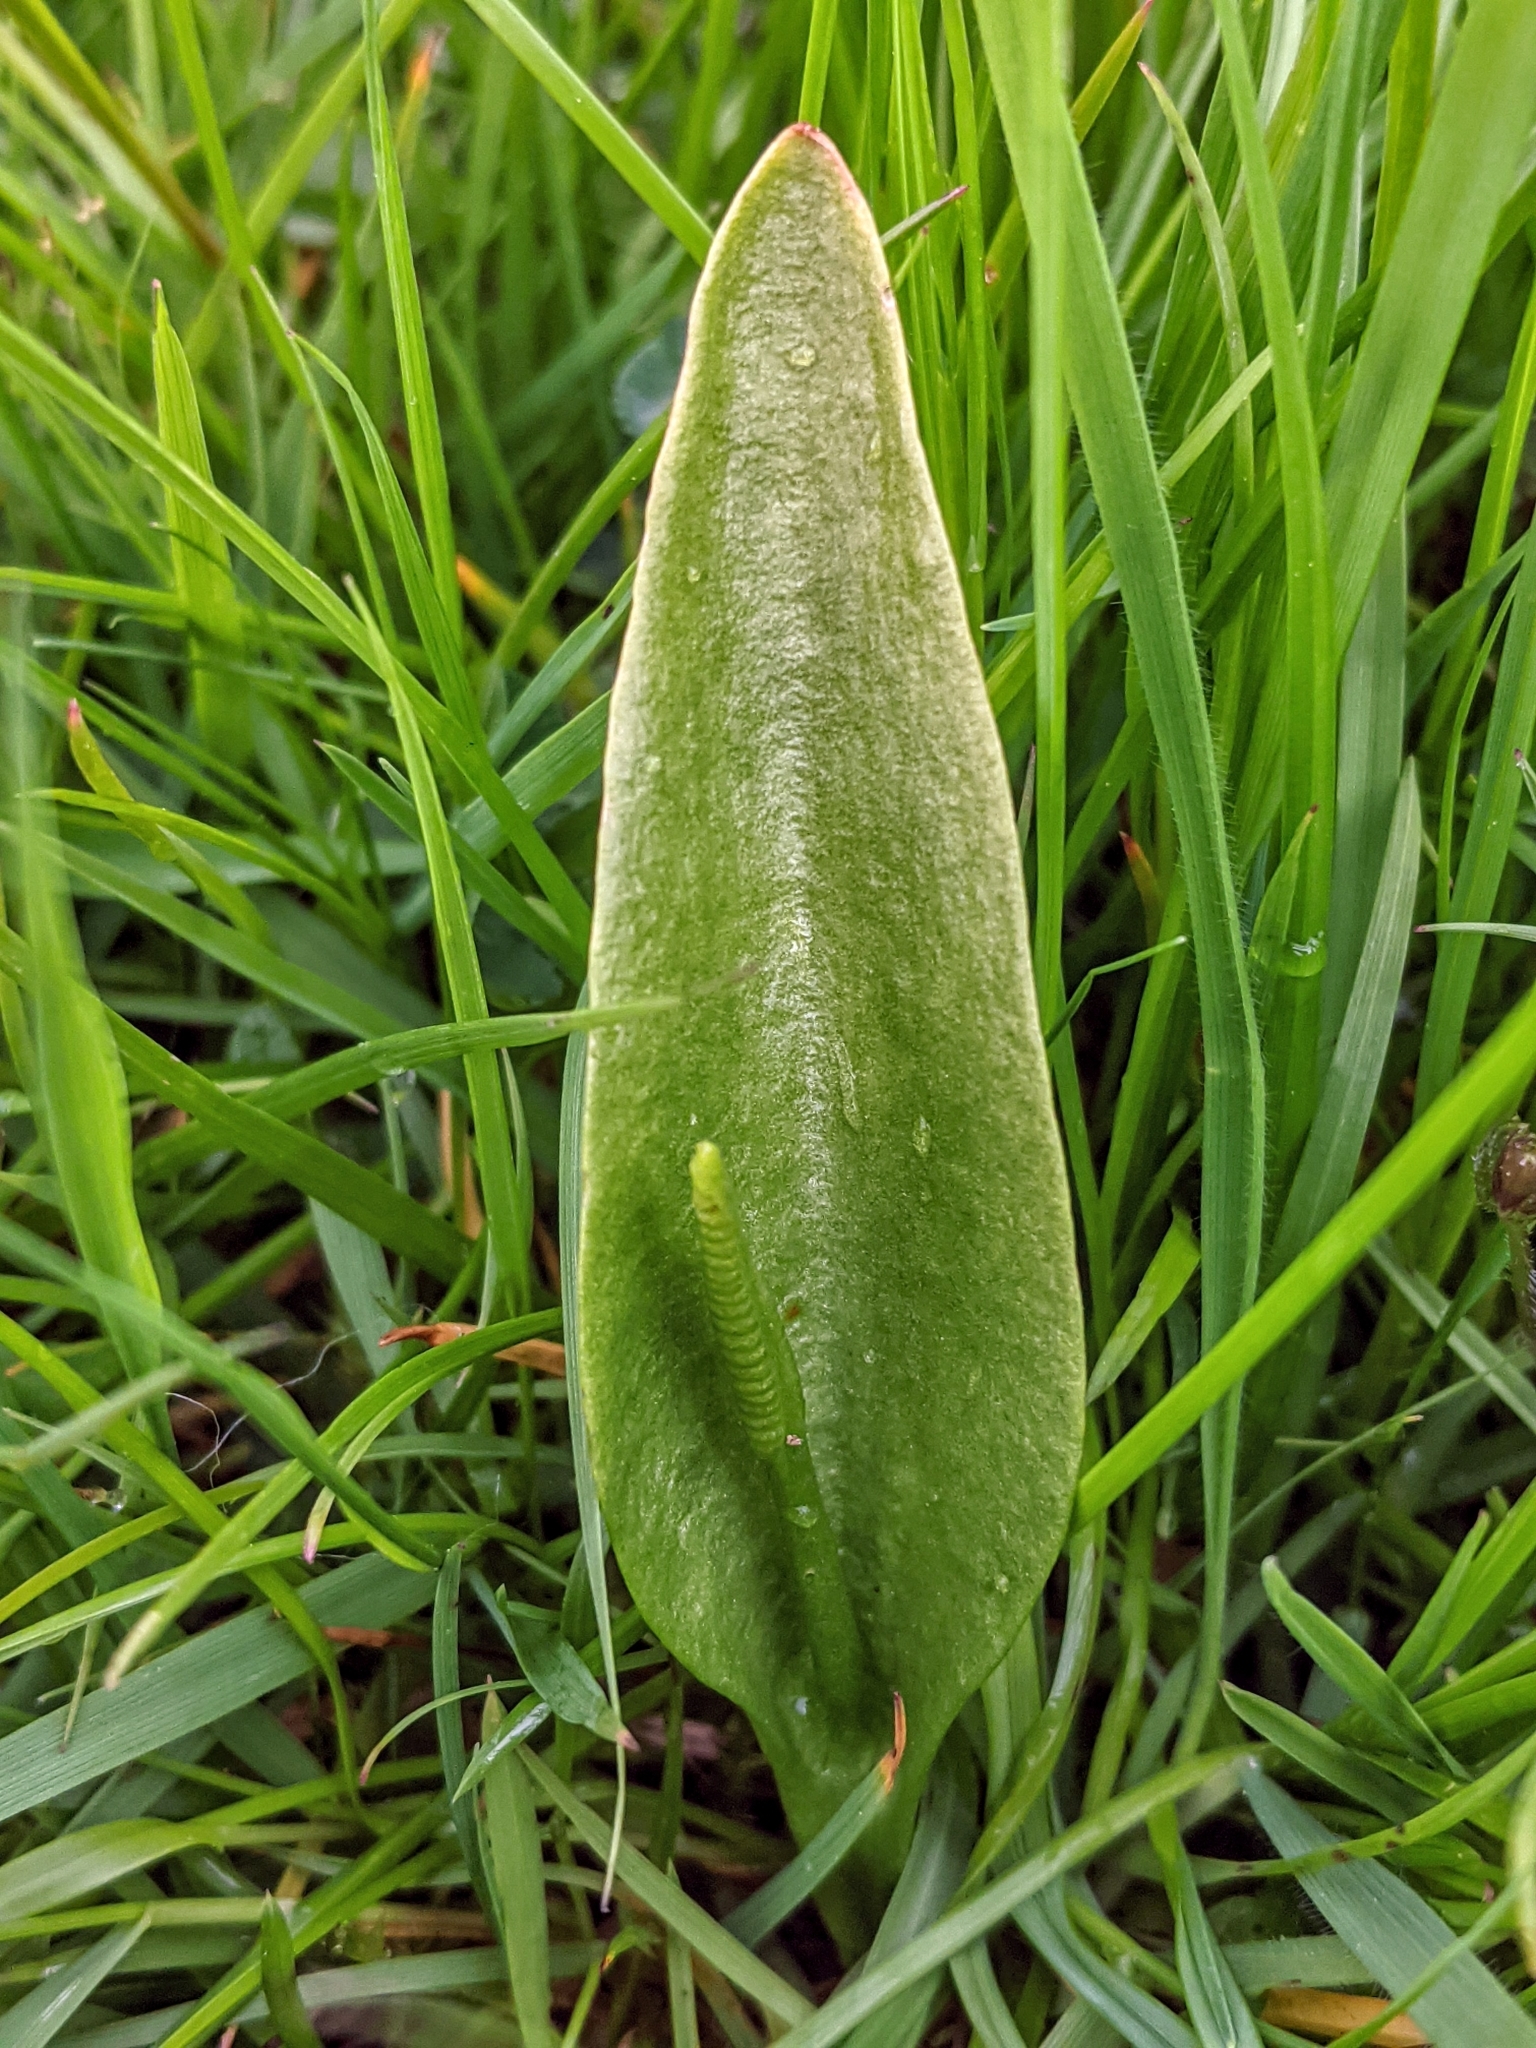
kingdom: Plantae
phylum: Tracheophyta
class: Polypodiopsida
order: Ophioglossales
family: Ophioglossaceae
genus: Ophioglossum
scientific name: Ophioglossum vulgatum
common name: Adder's-tongue
